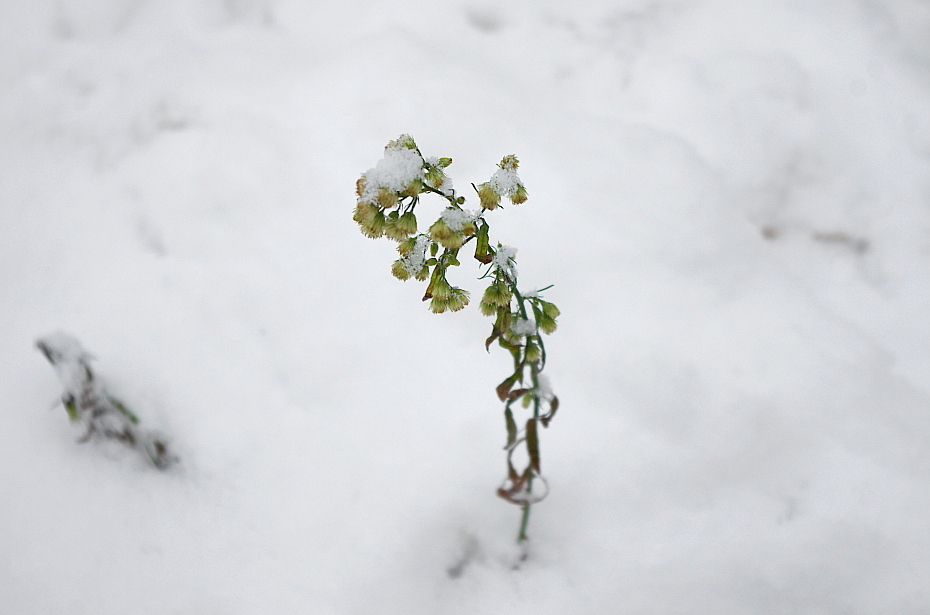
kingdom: Plantae
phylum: Tracheophyta
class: Magnoliopsida
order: Asterales
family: Asteraceae
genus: Erigeron
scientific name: Erigeron canadensis
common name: Canadian fleabane
